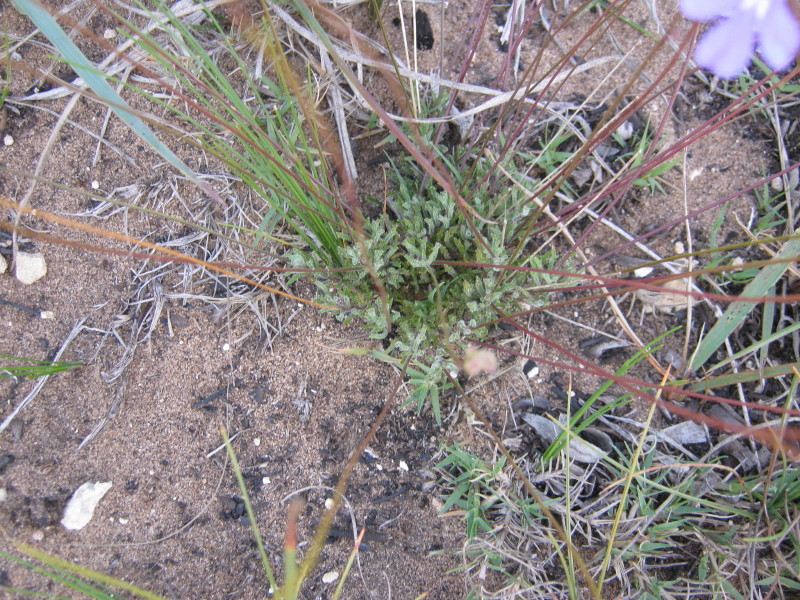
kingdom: Plantae
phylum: Tracheophyta
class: Magnoliopsida
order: Asterales
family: Campanulaceae
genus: Lobelia
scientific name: Lobelia tomentosa
